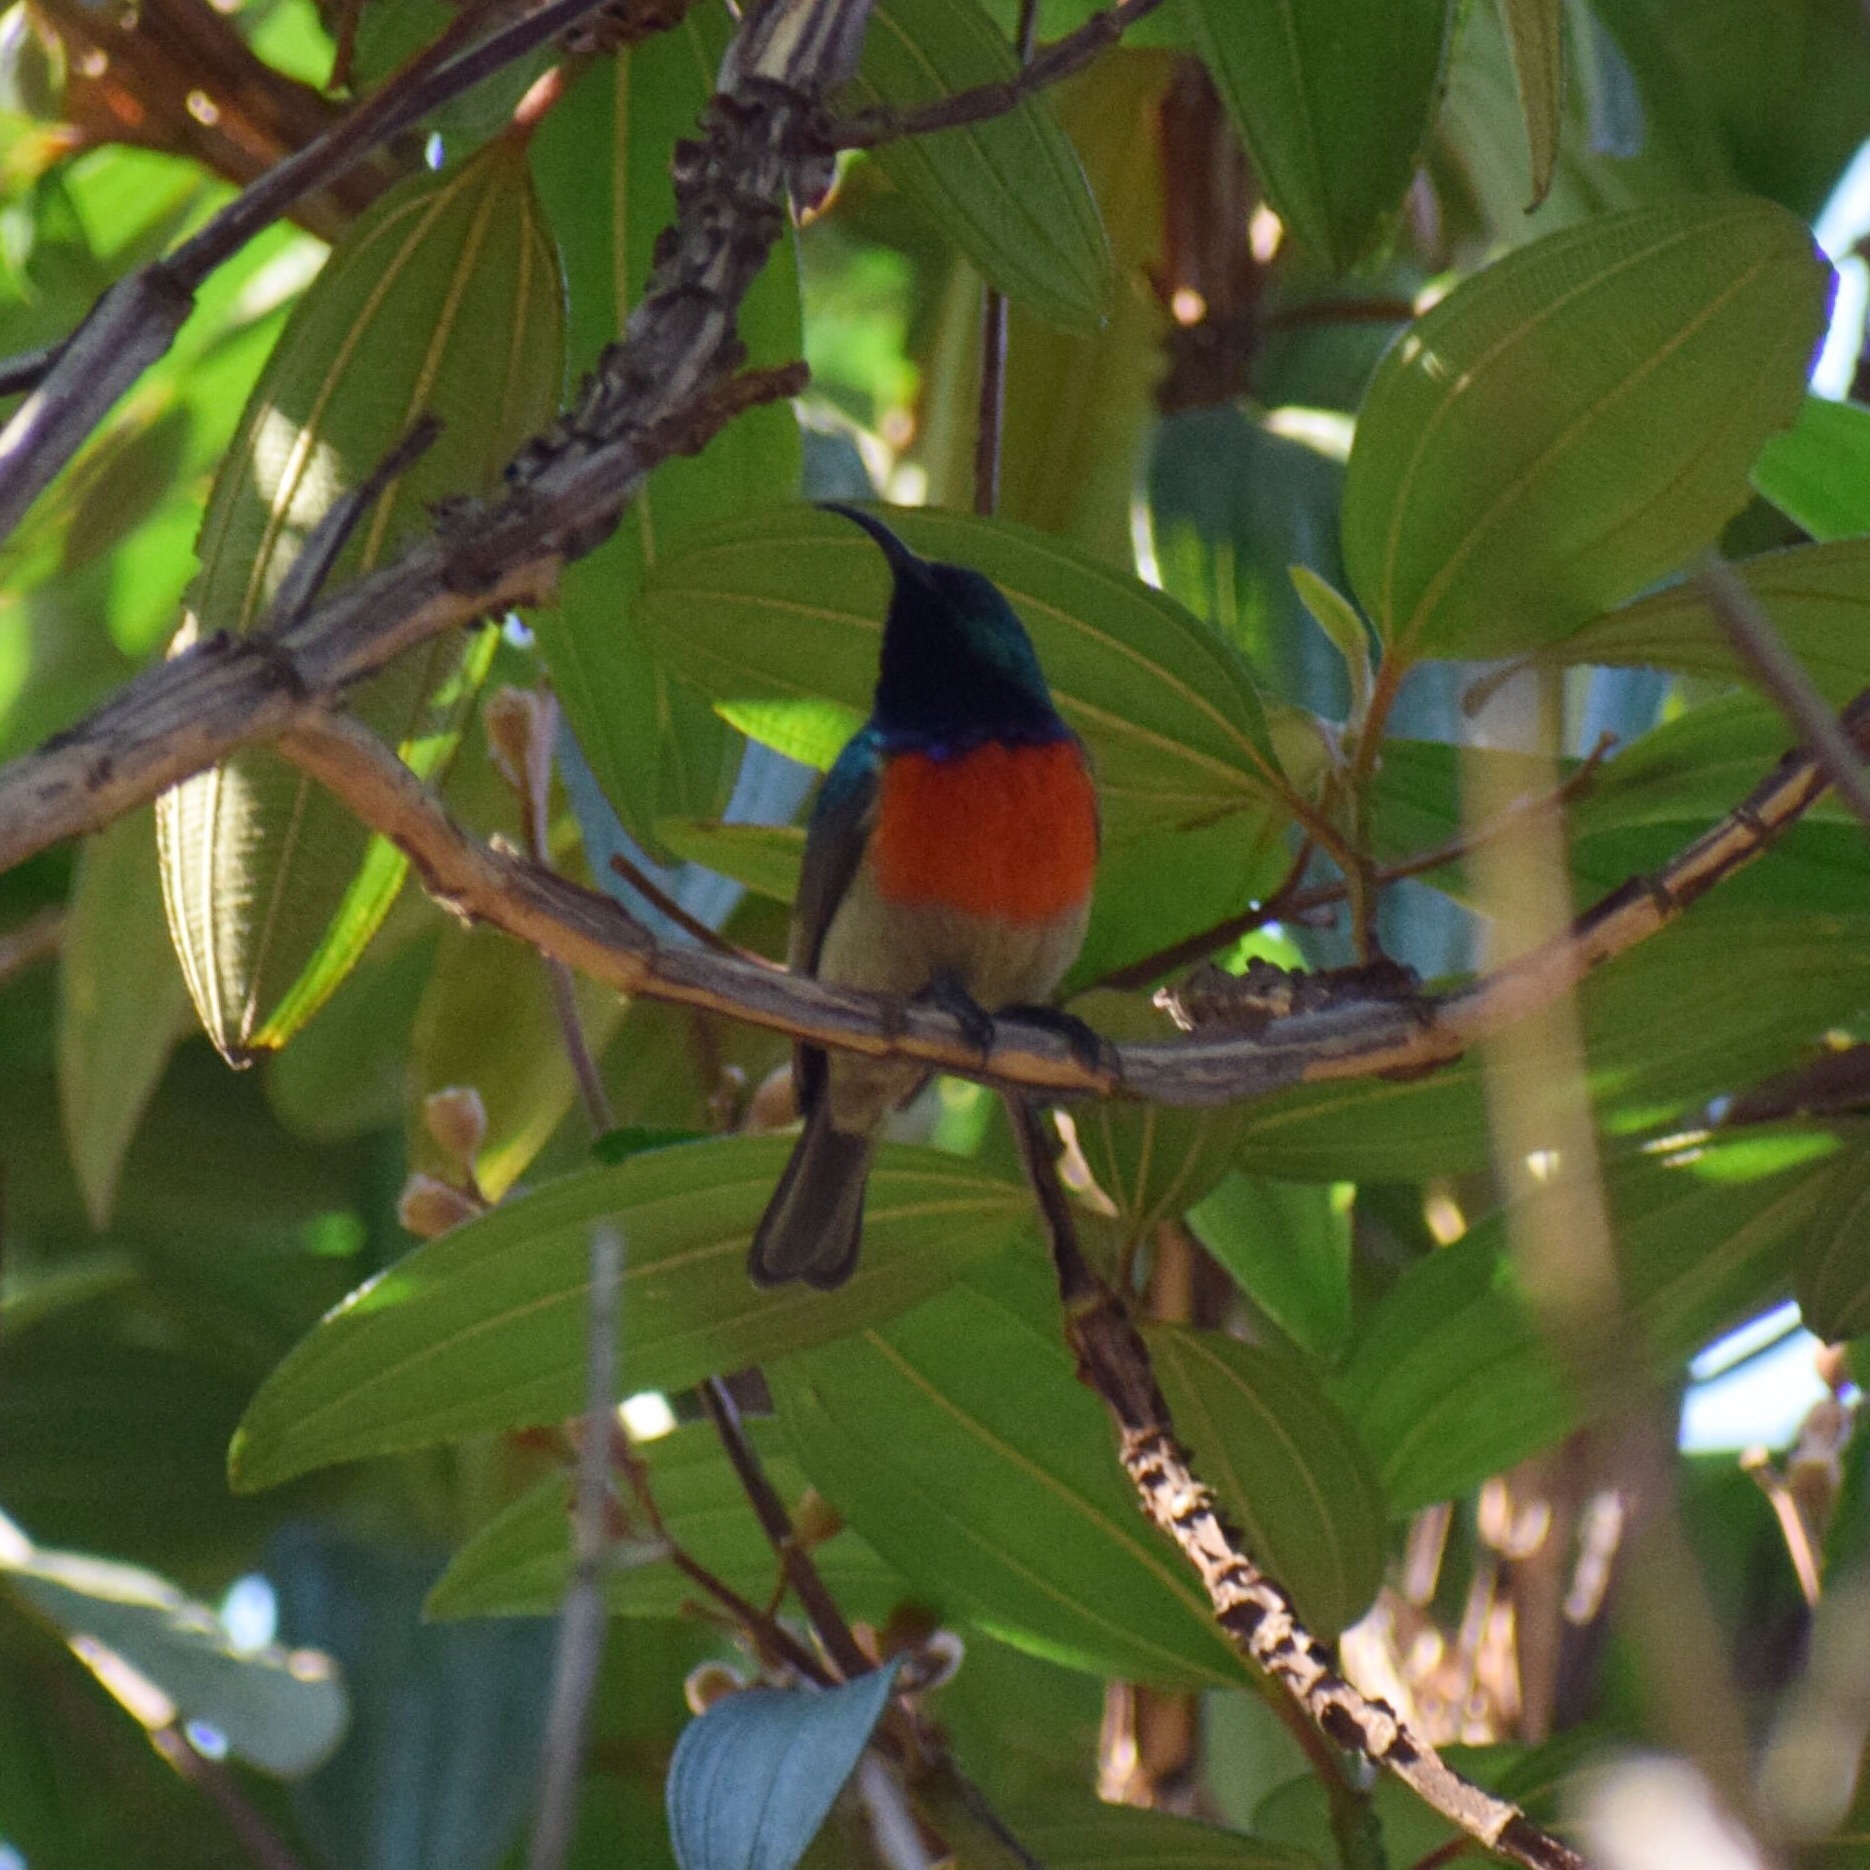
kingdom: Animalia
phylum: Chordata
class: Aves
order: Passeriformes
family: Nectariniidae
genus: Cinnyris
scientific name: Cinnyris afer
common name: Greater double-collared sunbird
